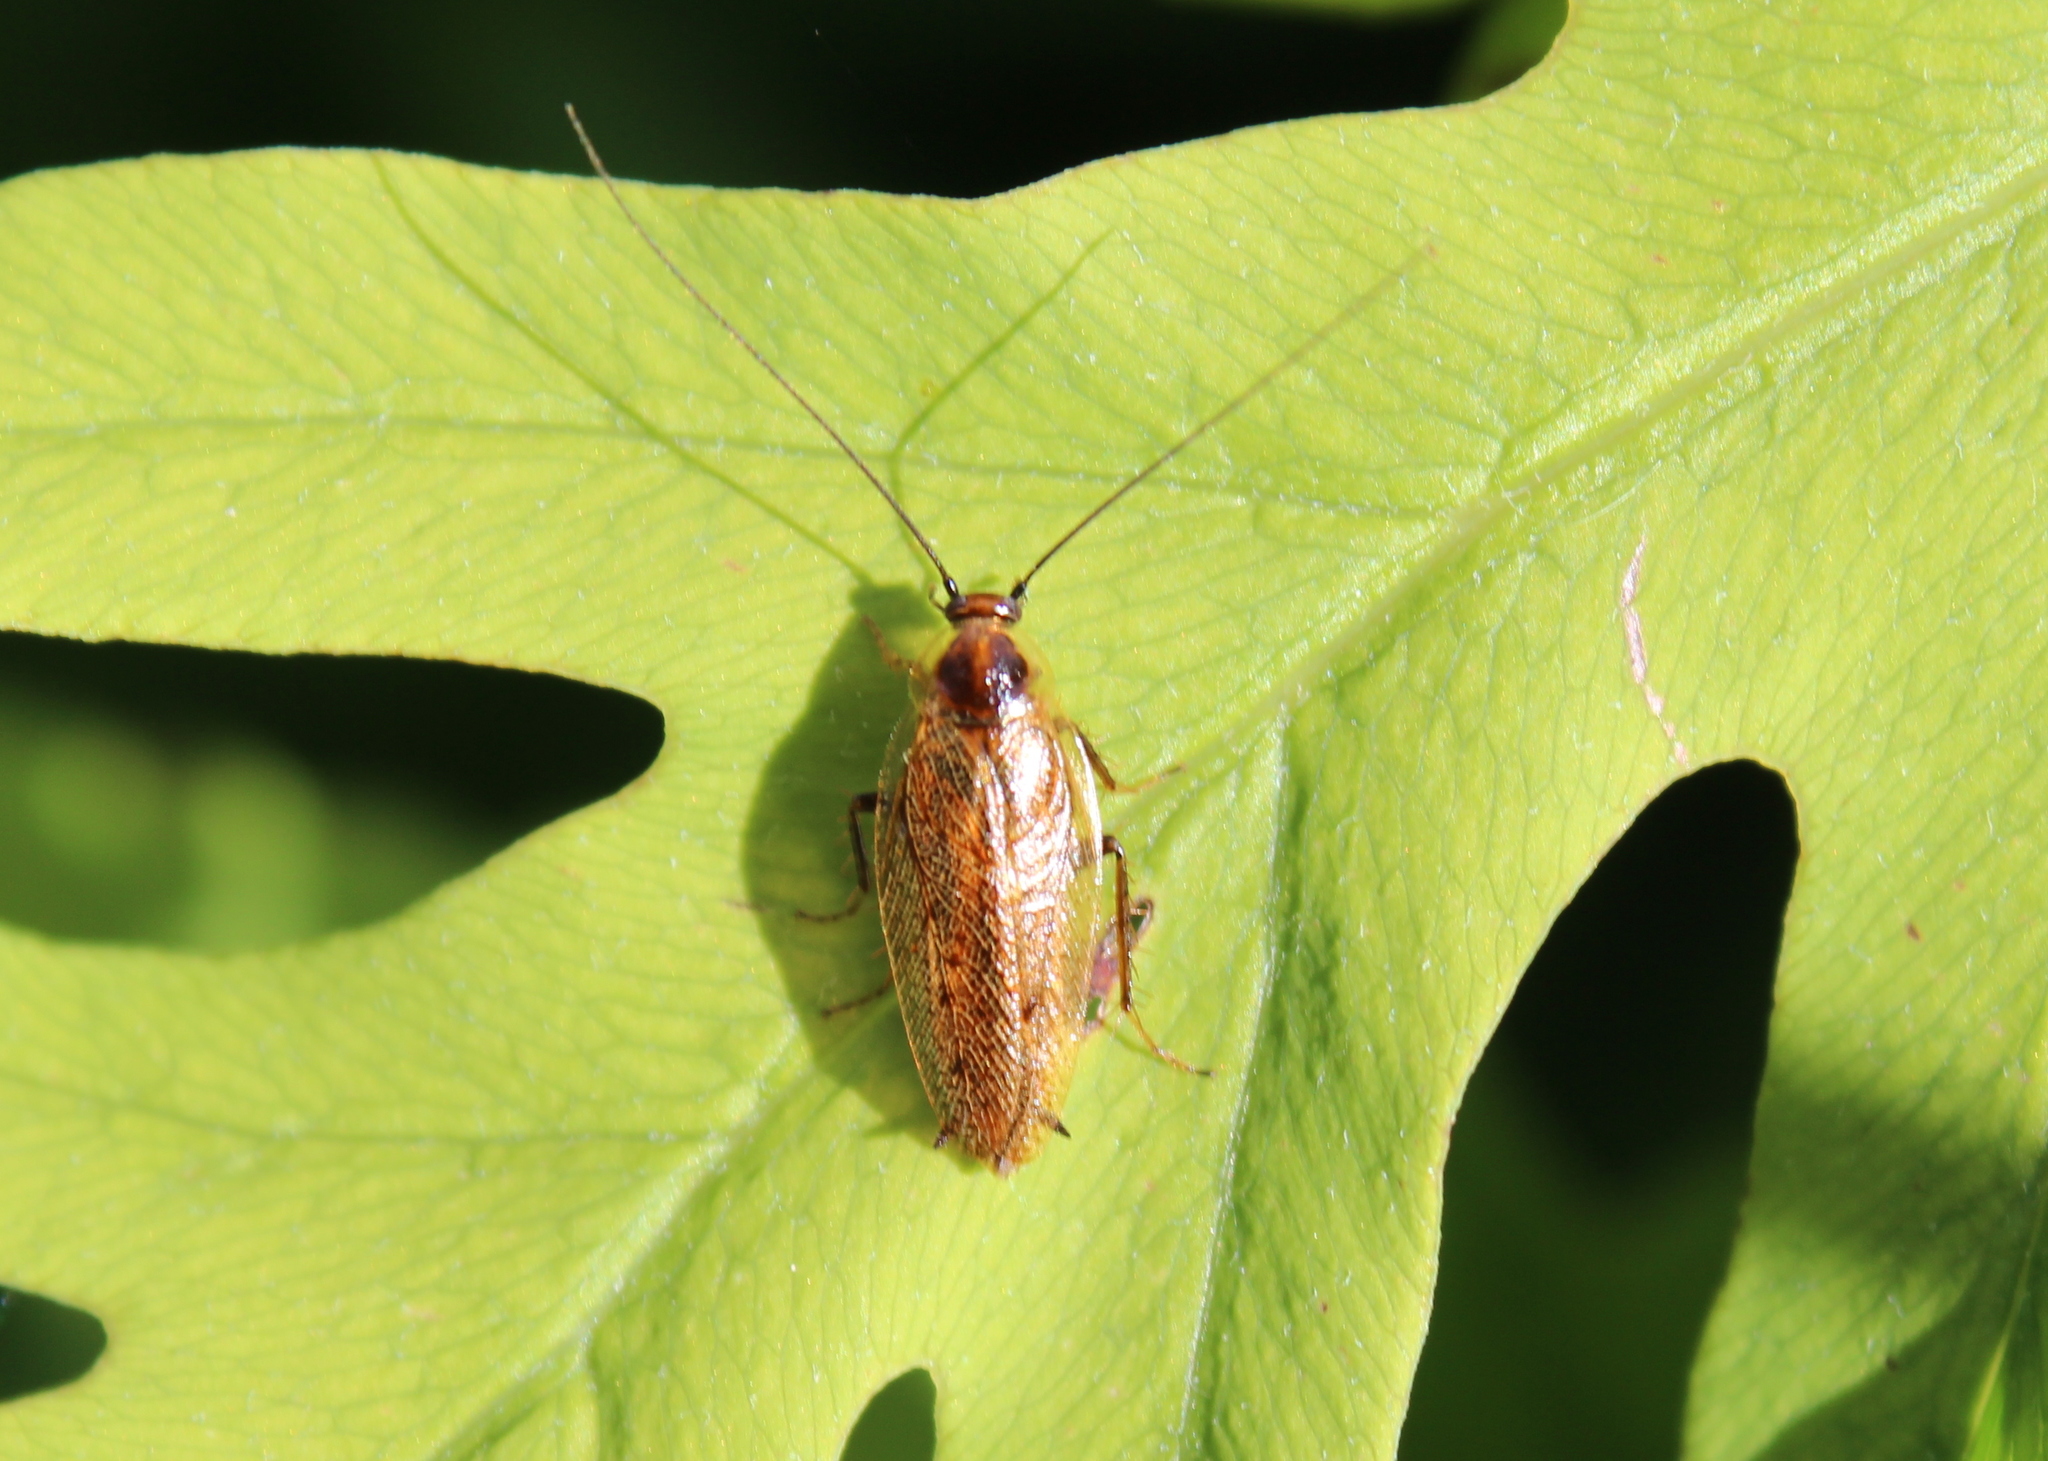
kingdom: Animalia
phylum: Arthropoda
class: Insecta
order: Blattodea
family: Ectobiidae
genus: Ectobius
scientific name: Ectobius lapponicus
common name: Dusky cockroach
